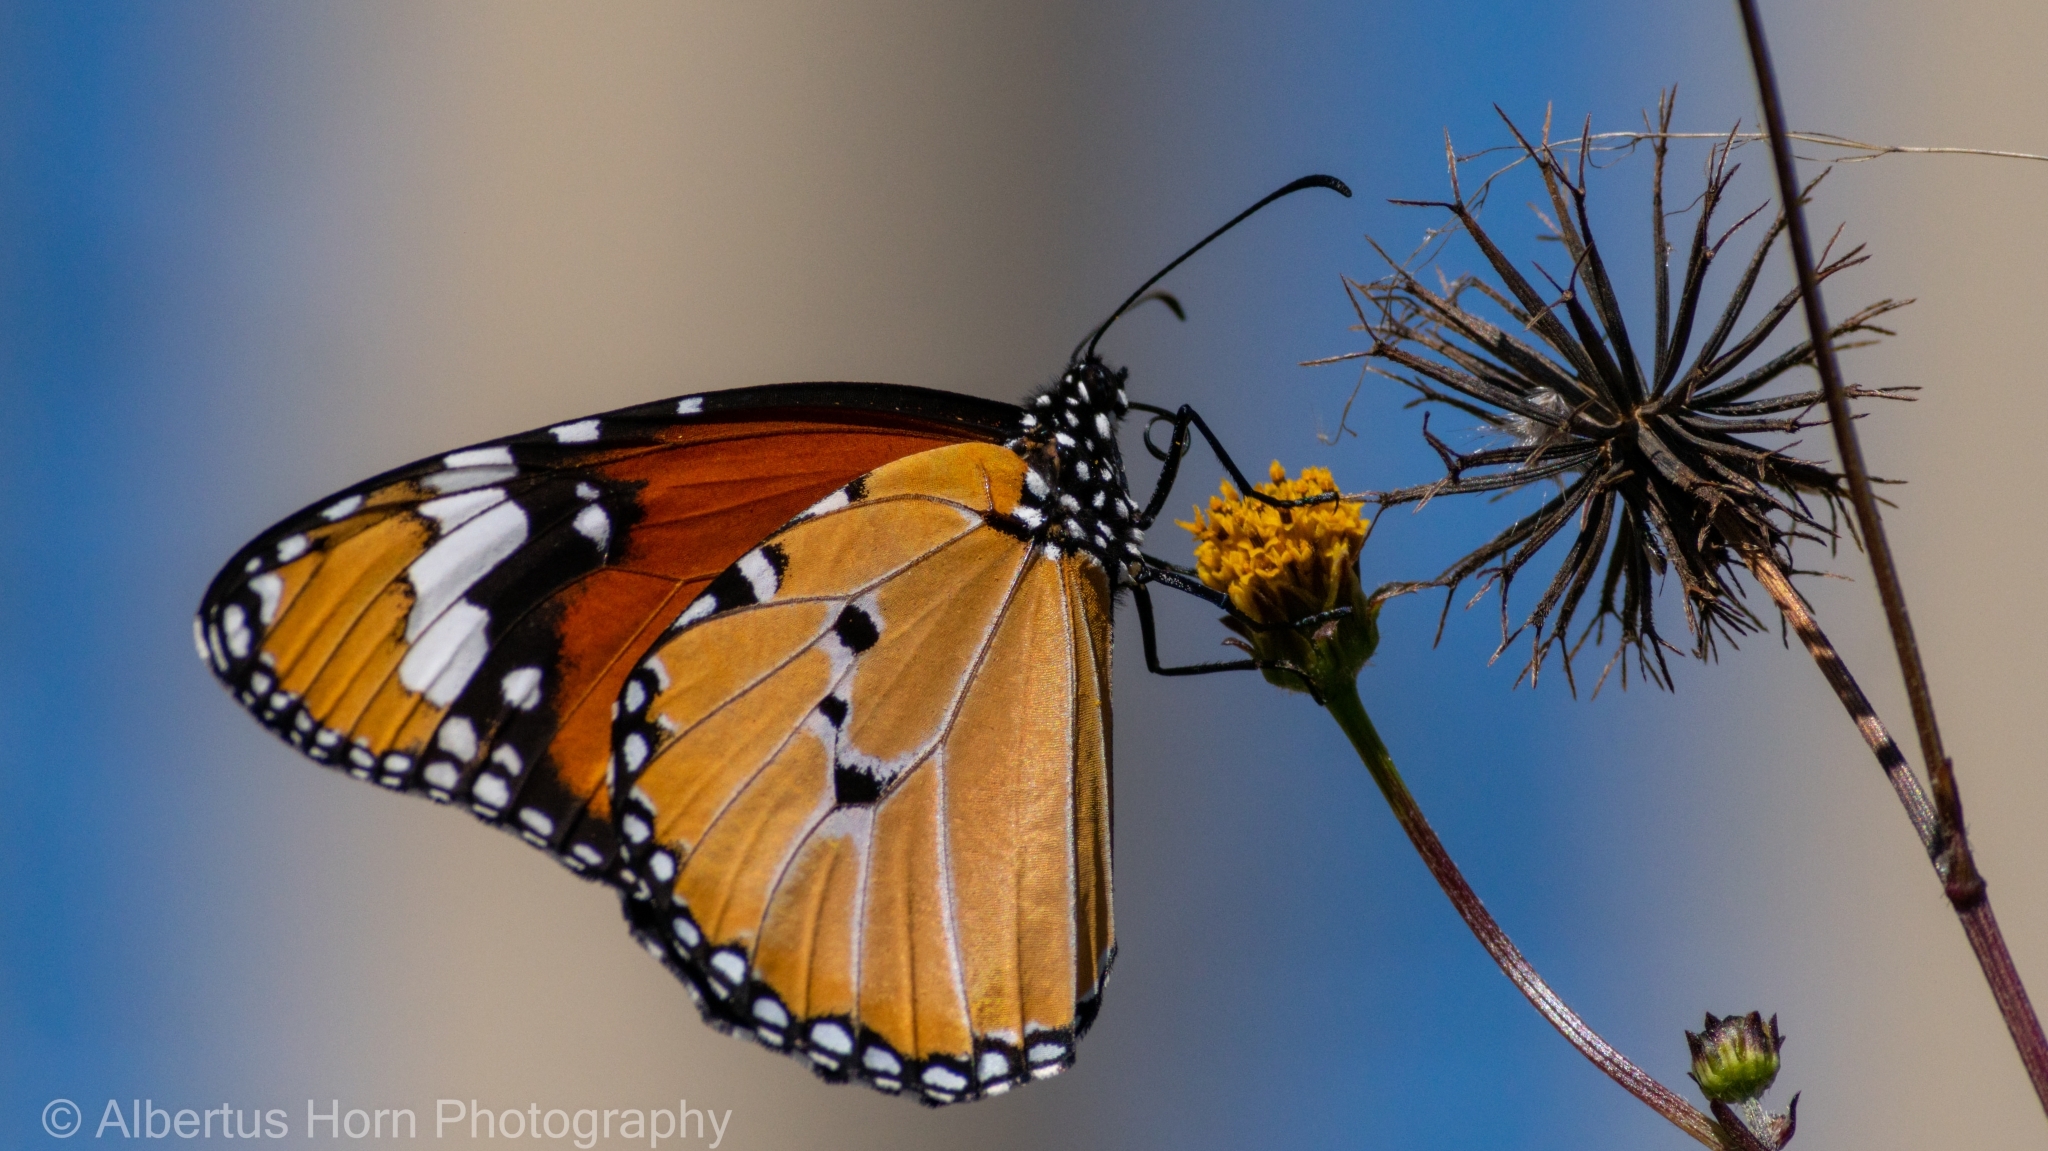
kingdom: Animalia
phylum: Arthropoda
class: Insecta
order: Lepidoptera
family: Nymphalidae
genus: Danaus
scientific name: Danaus chrysippus
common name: Plain tiger
